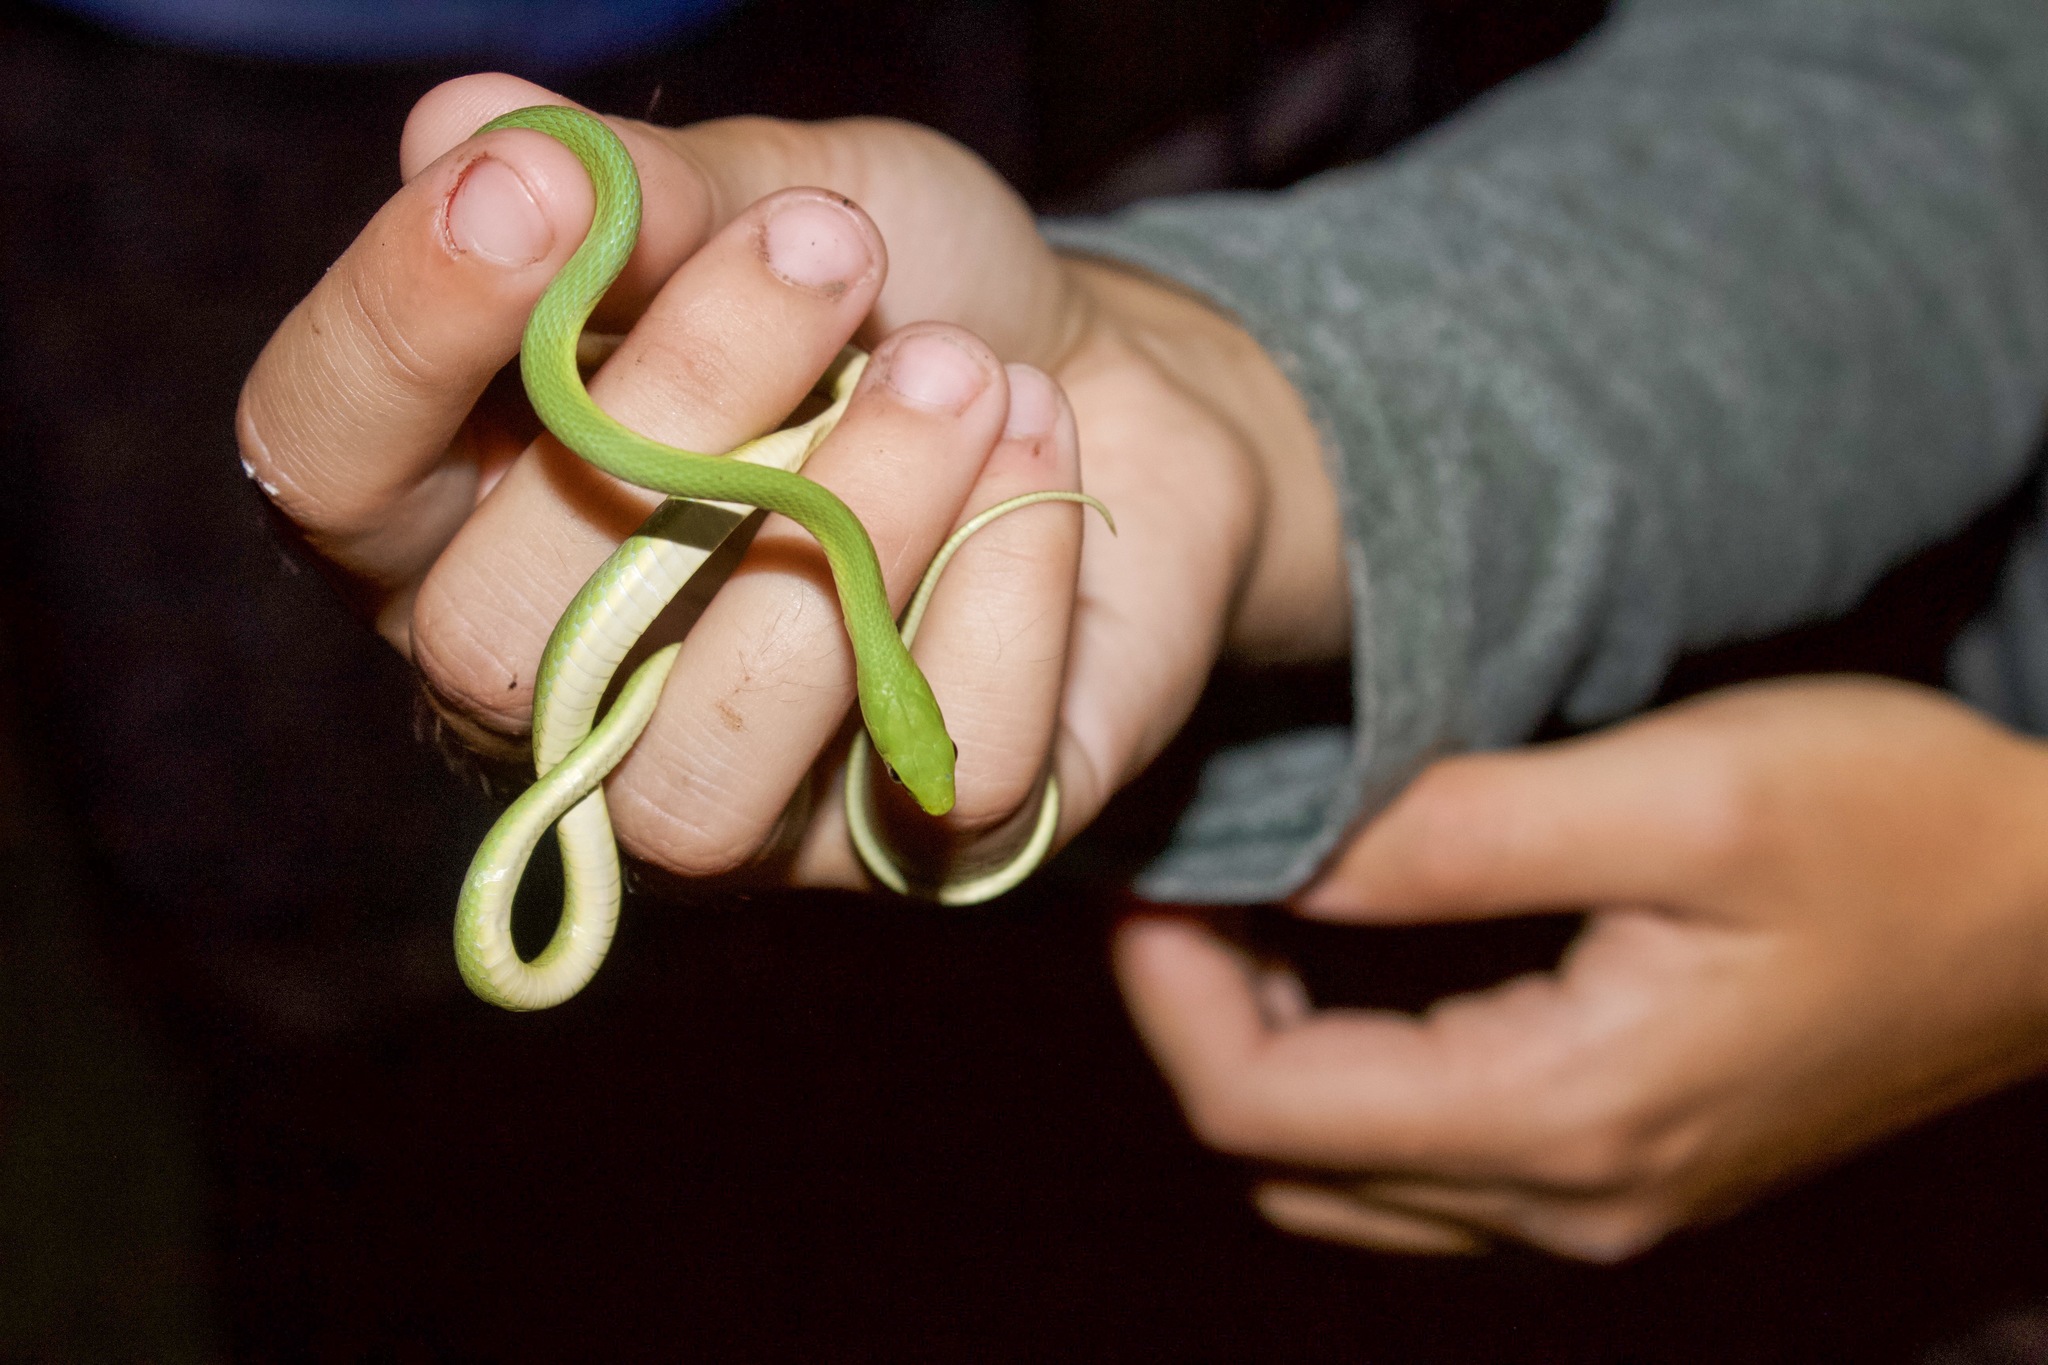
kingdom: Animalia
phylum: Chordata
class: Squamata
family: Colubridae
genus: Opheodrys
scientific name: Opheodrys aestivus
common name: Rough greensnake
